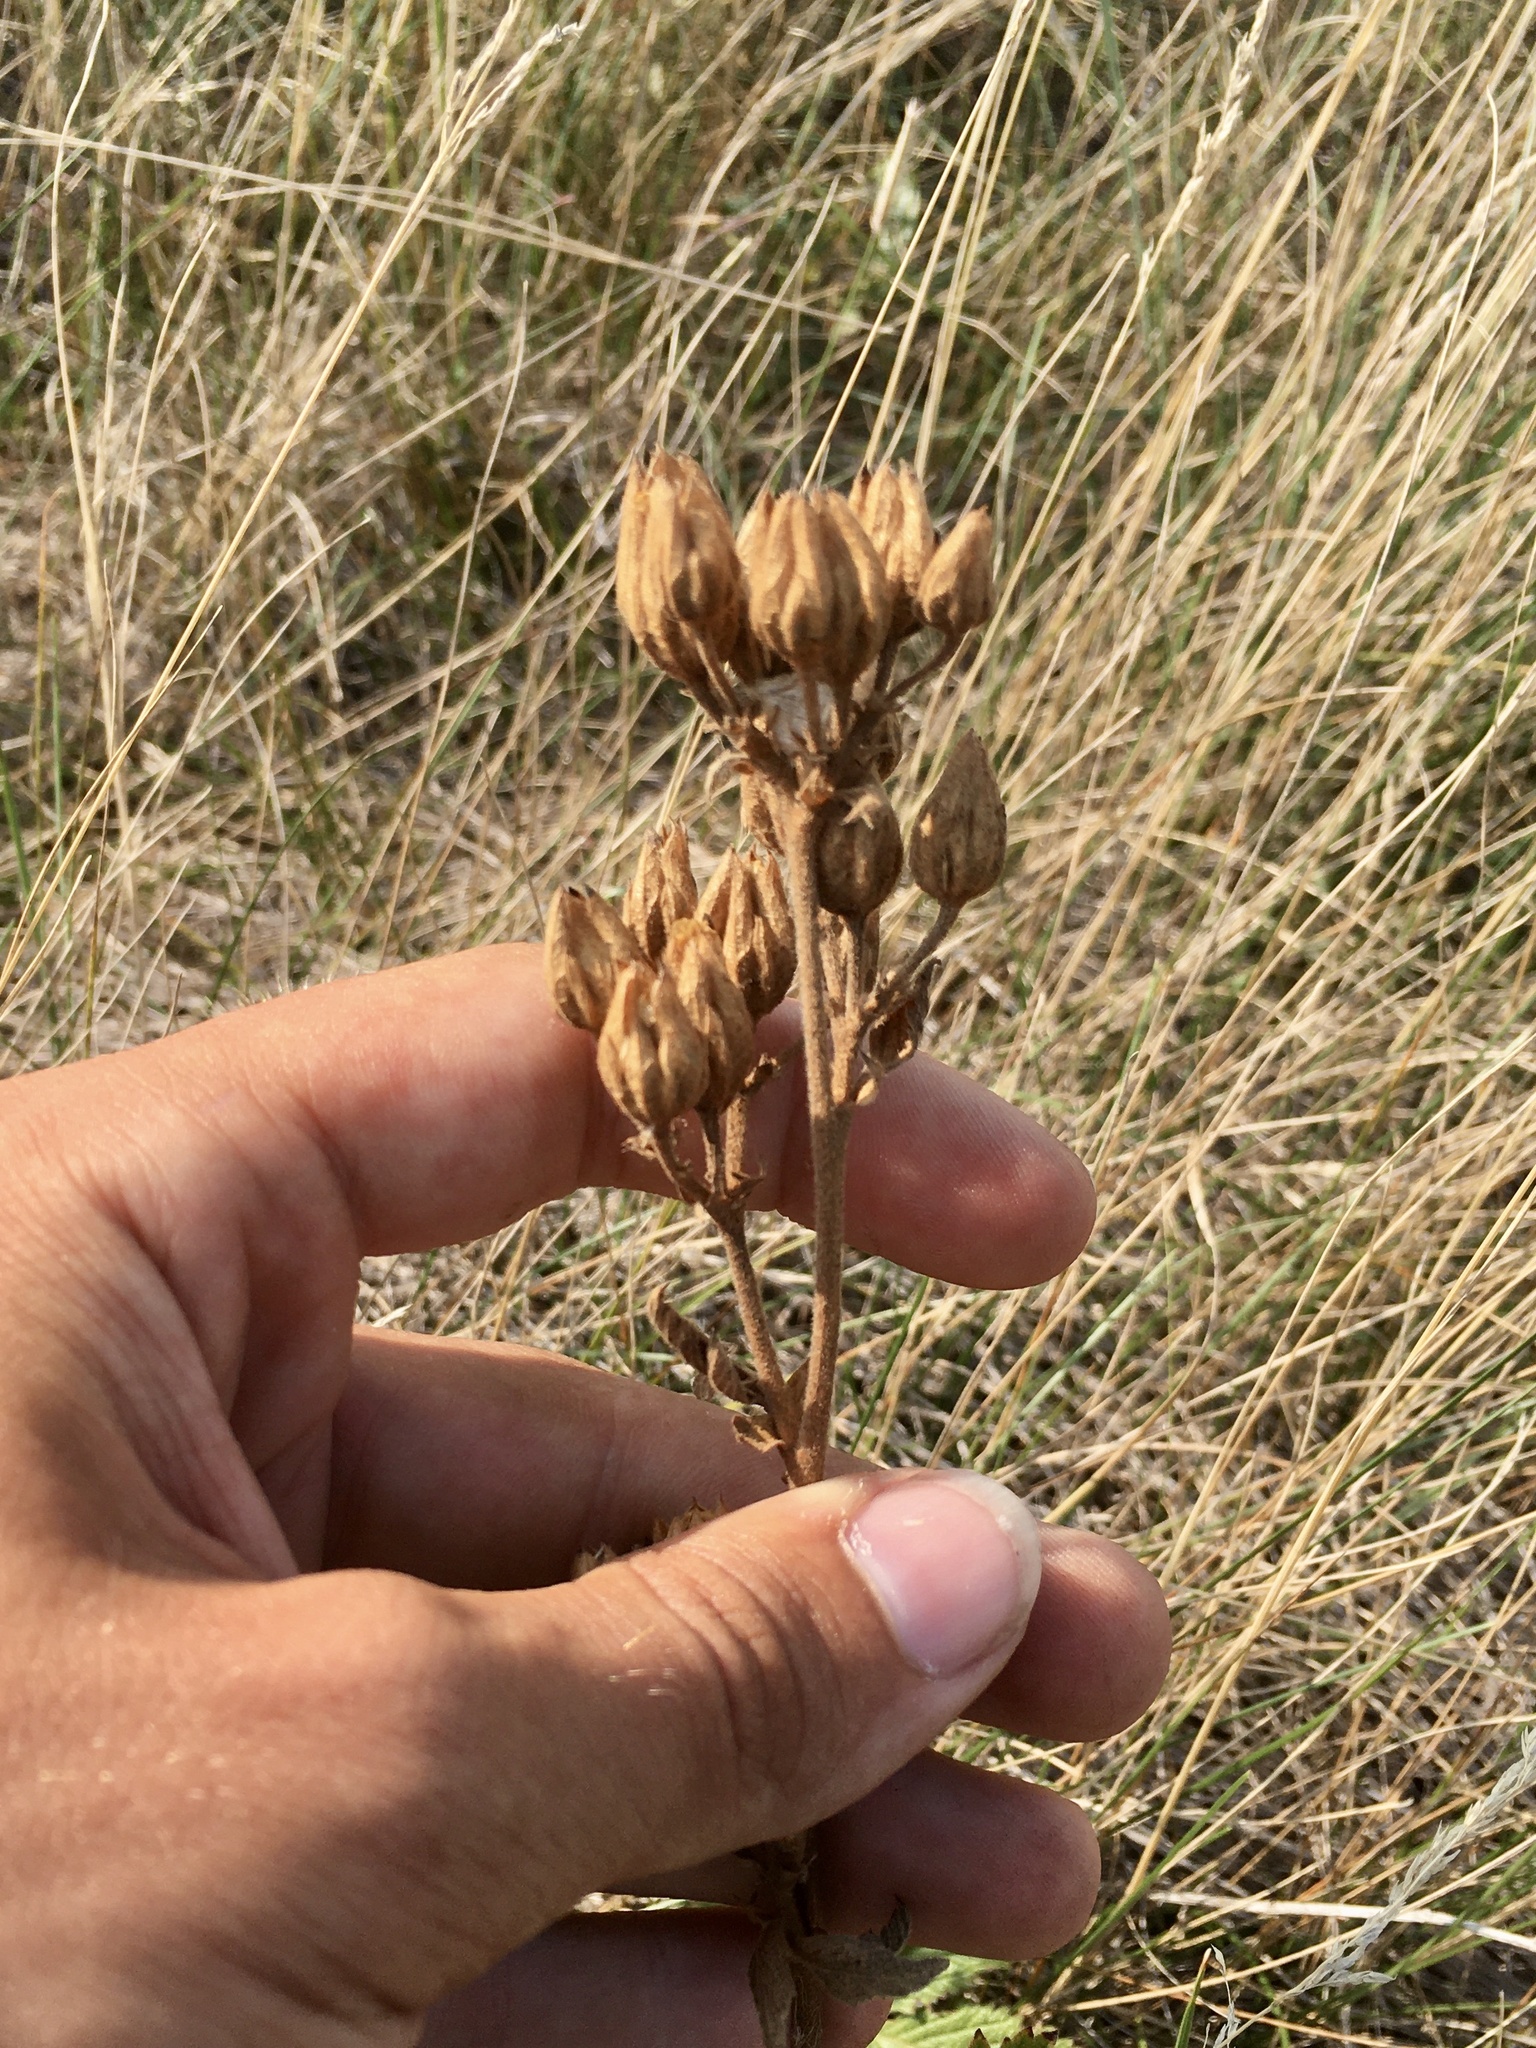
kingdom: Plantae
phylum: Tracheophyta
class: Magnoliopsida
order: Rosales
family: Rosaceae
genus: Drymocallis
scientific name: Drymocallis arguta
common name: Tall cinquefoil
